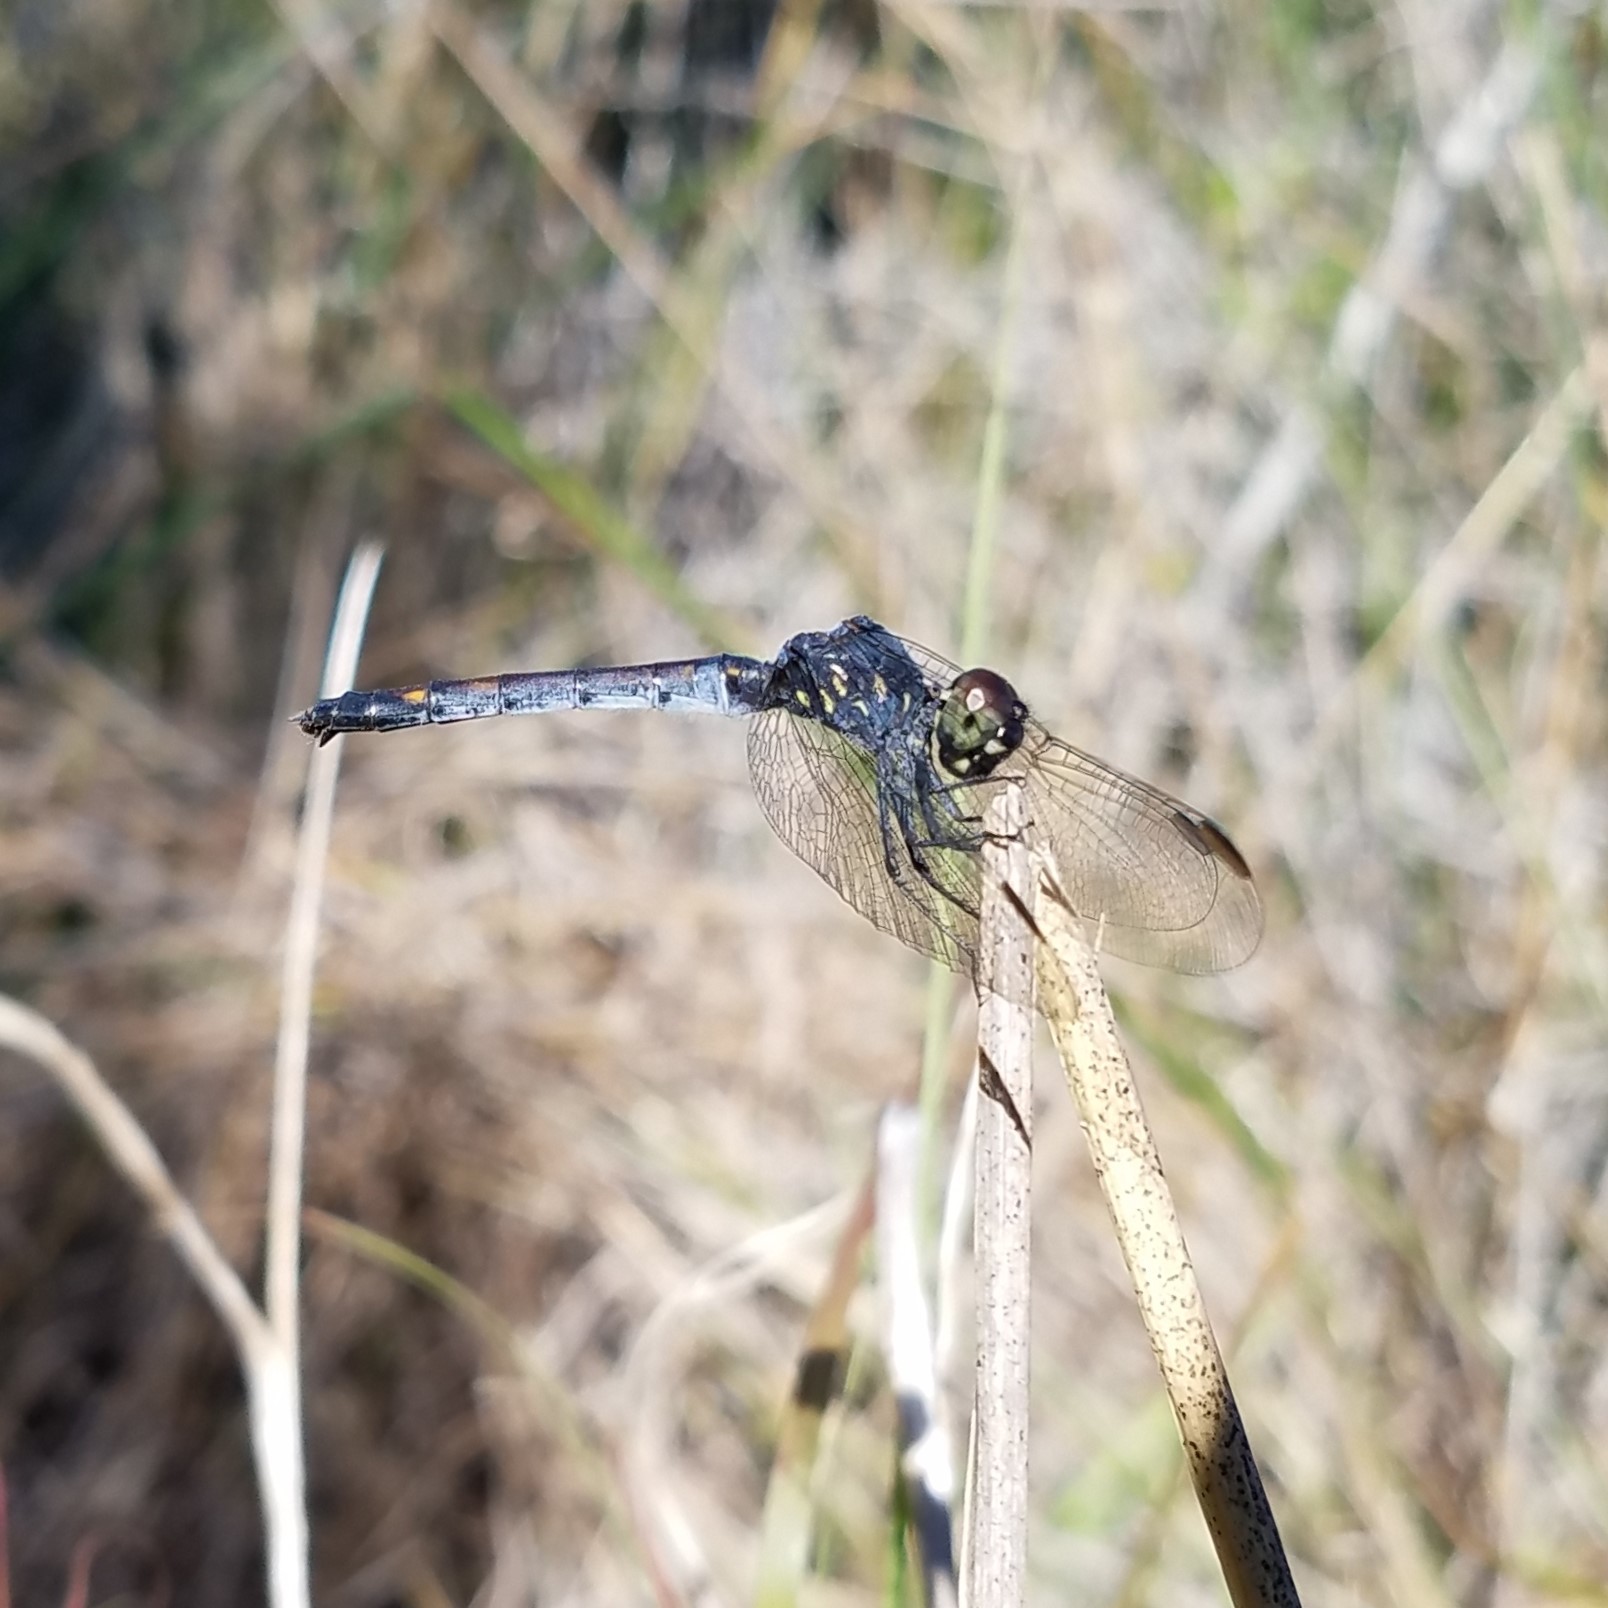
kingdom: Animalia
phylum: Arthropoda
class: Insecta
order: Odonata
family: Libellulidae
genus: Erythrodiplax
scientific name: Erythrodiplax berenice
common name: Seaside dragonlet
